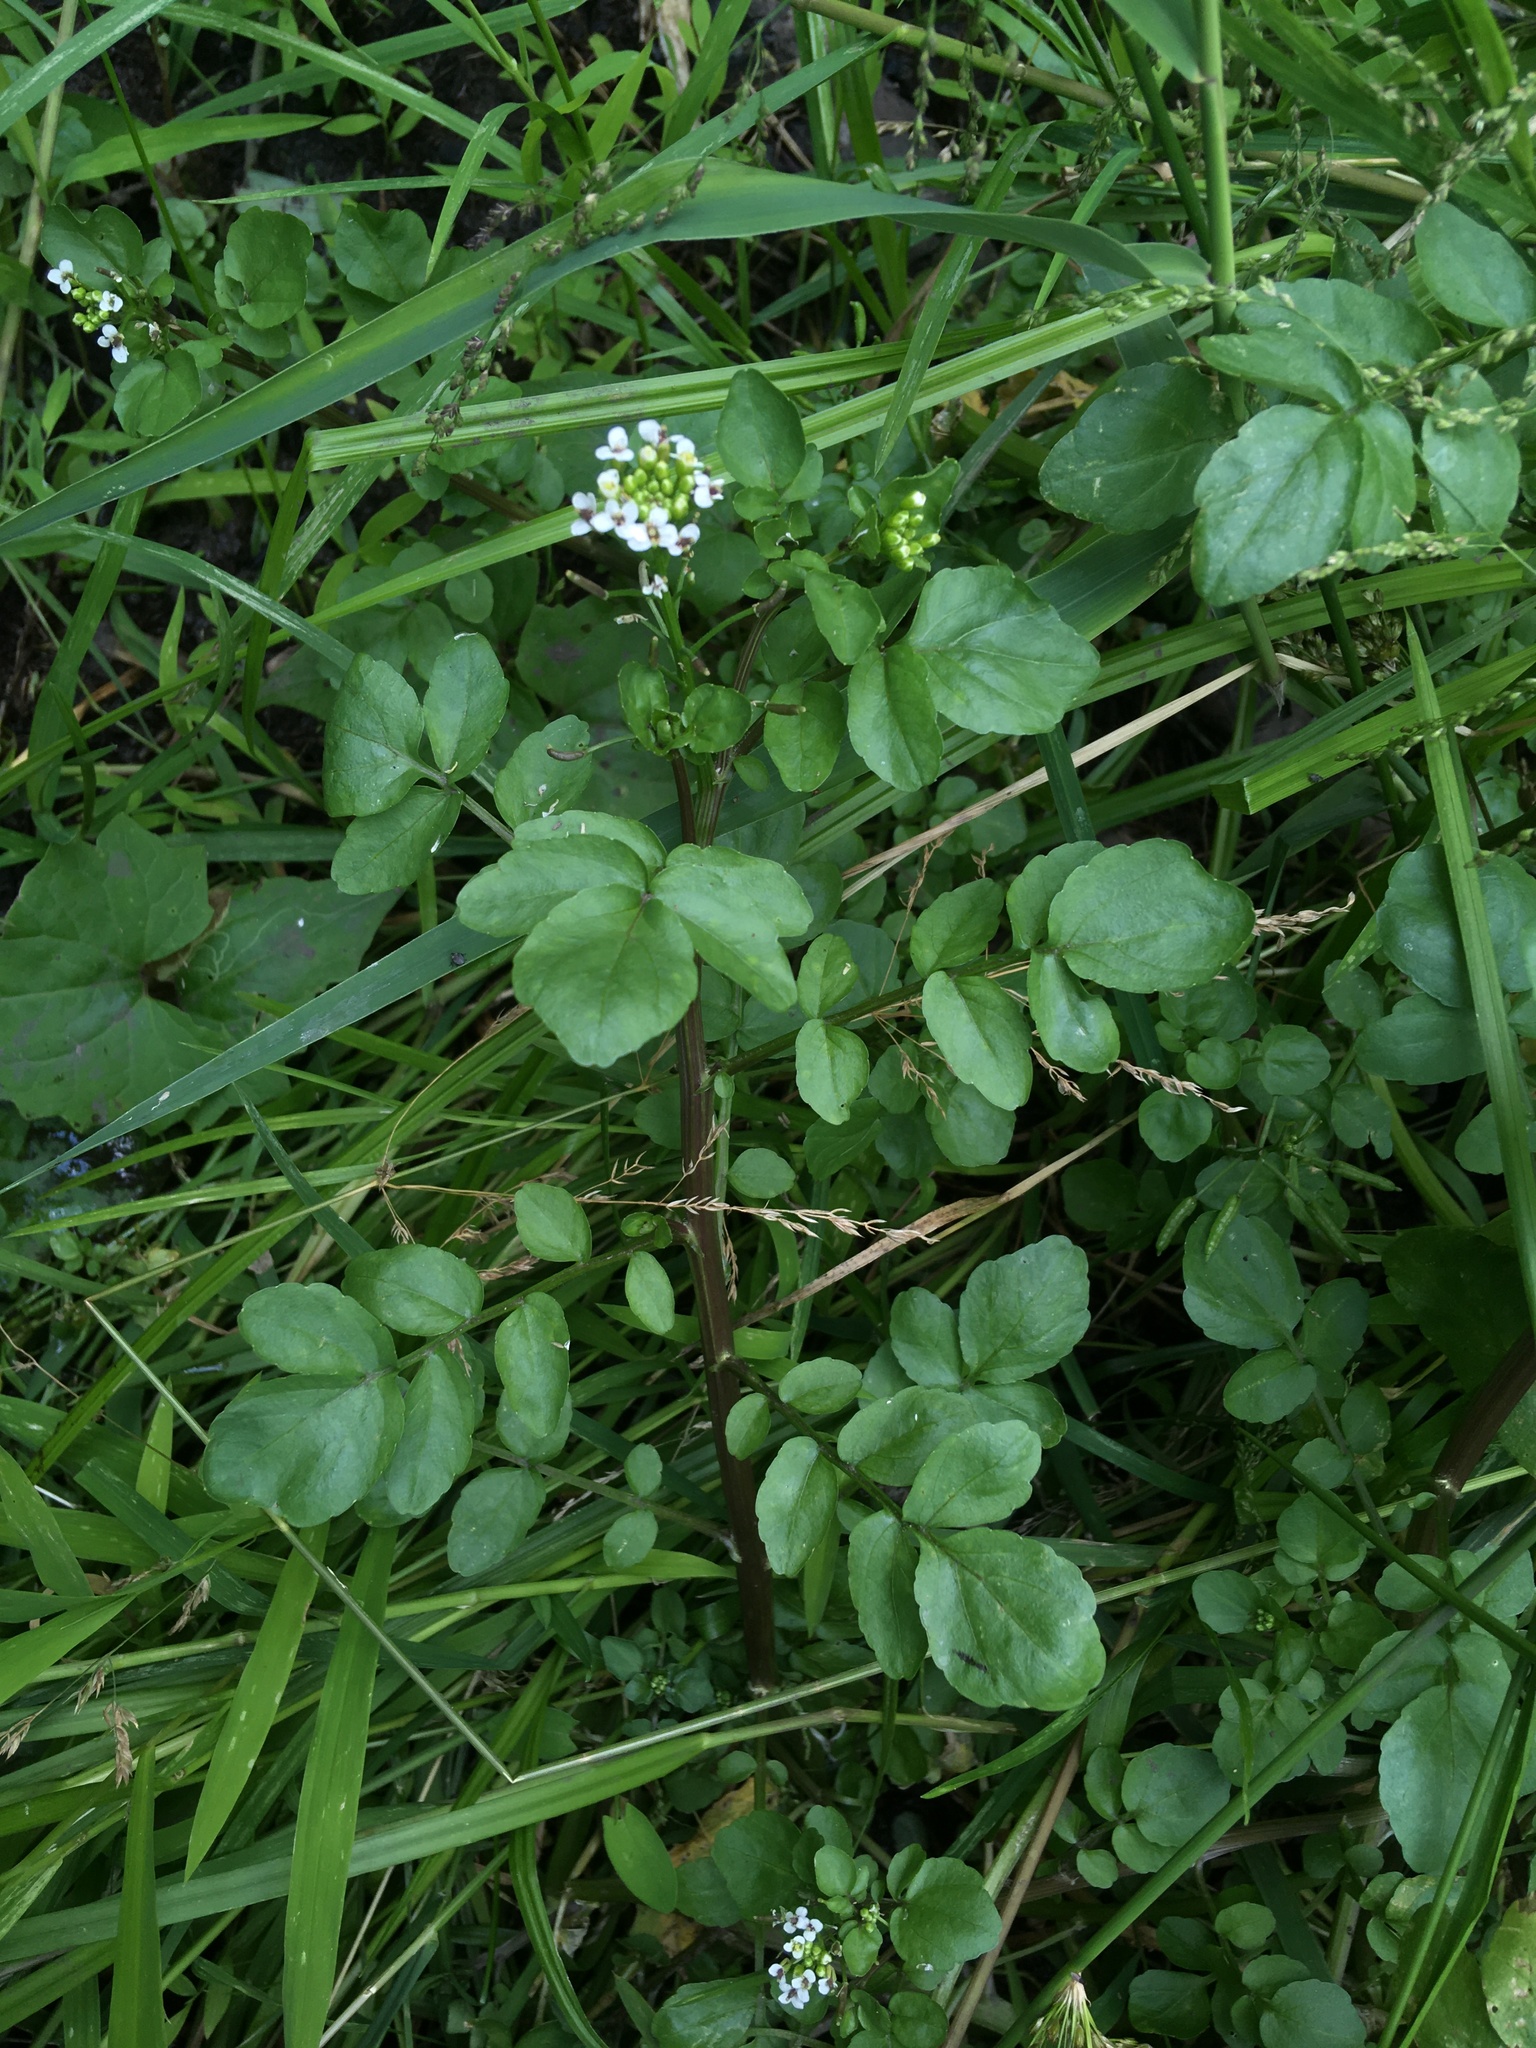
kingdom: Plantae
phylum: Tracheophyta
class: Magnoliopsida
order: Brassicales
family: Brassicaceae
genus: Nasturtium
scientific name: Nasturtium officinale
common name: Watercress
